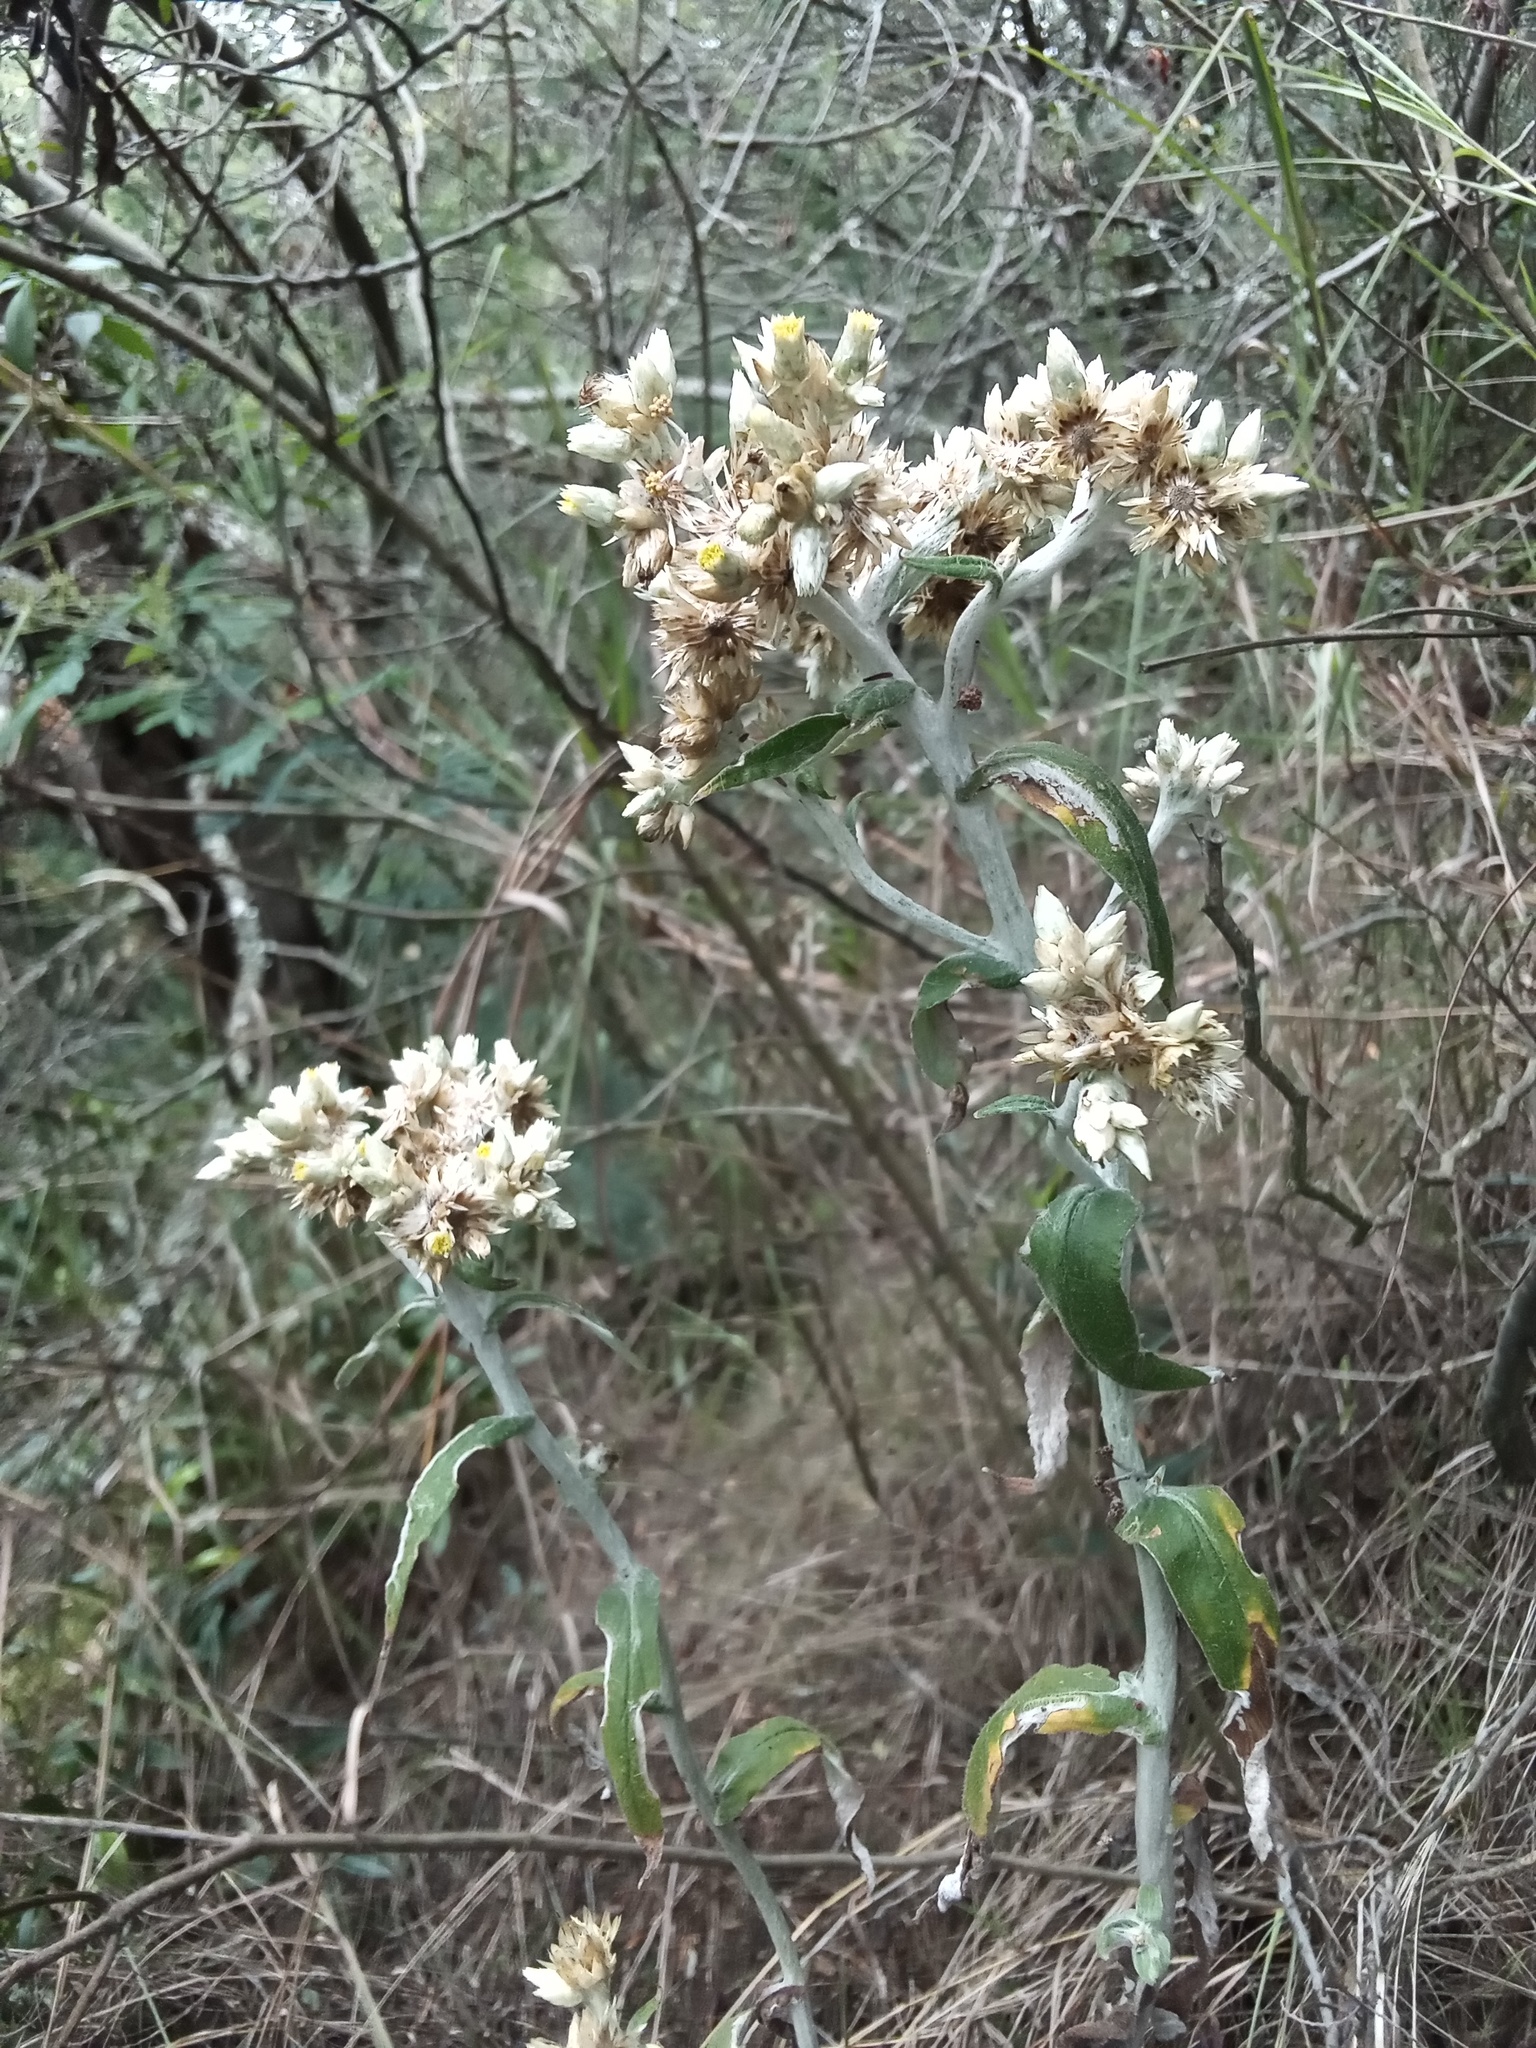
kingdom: Plantae
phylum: Tracheophyta
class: Magnoliopsida
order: Asterales
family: Asteraceae
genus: Pseudognaphalium
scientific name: Pseudognaphalium domingense
